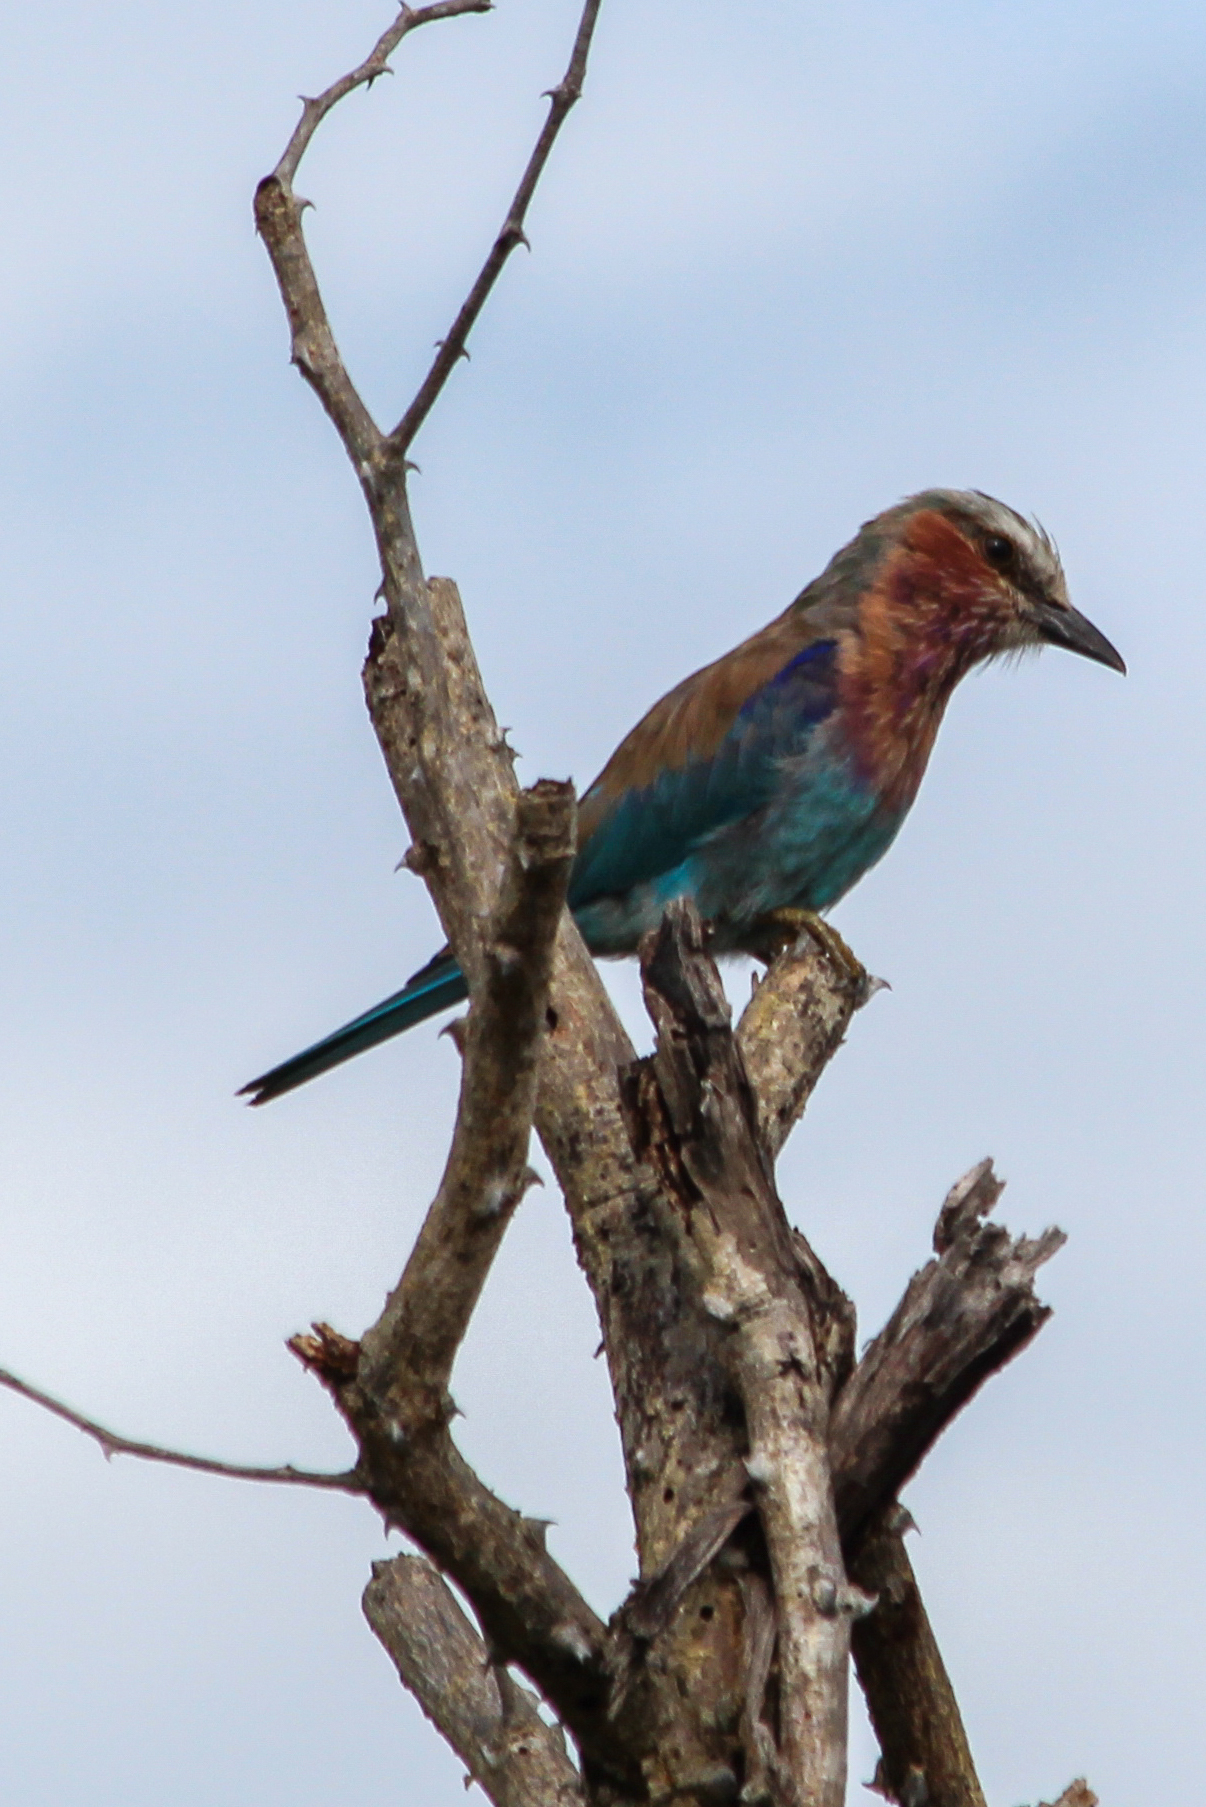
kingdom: Animalia
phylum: Chordata
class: Aves
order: Coraciiformes
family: Coraciidae
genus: Coracias
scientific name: Coracias caudatus
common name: Lilac-breasted roller
